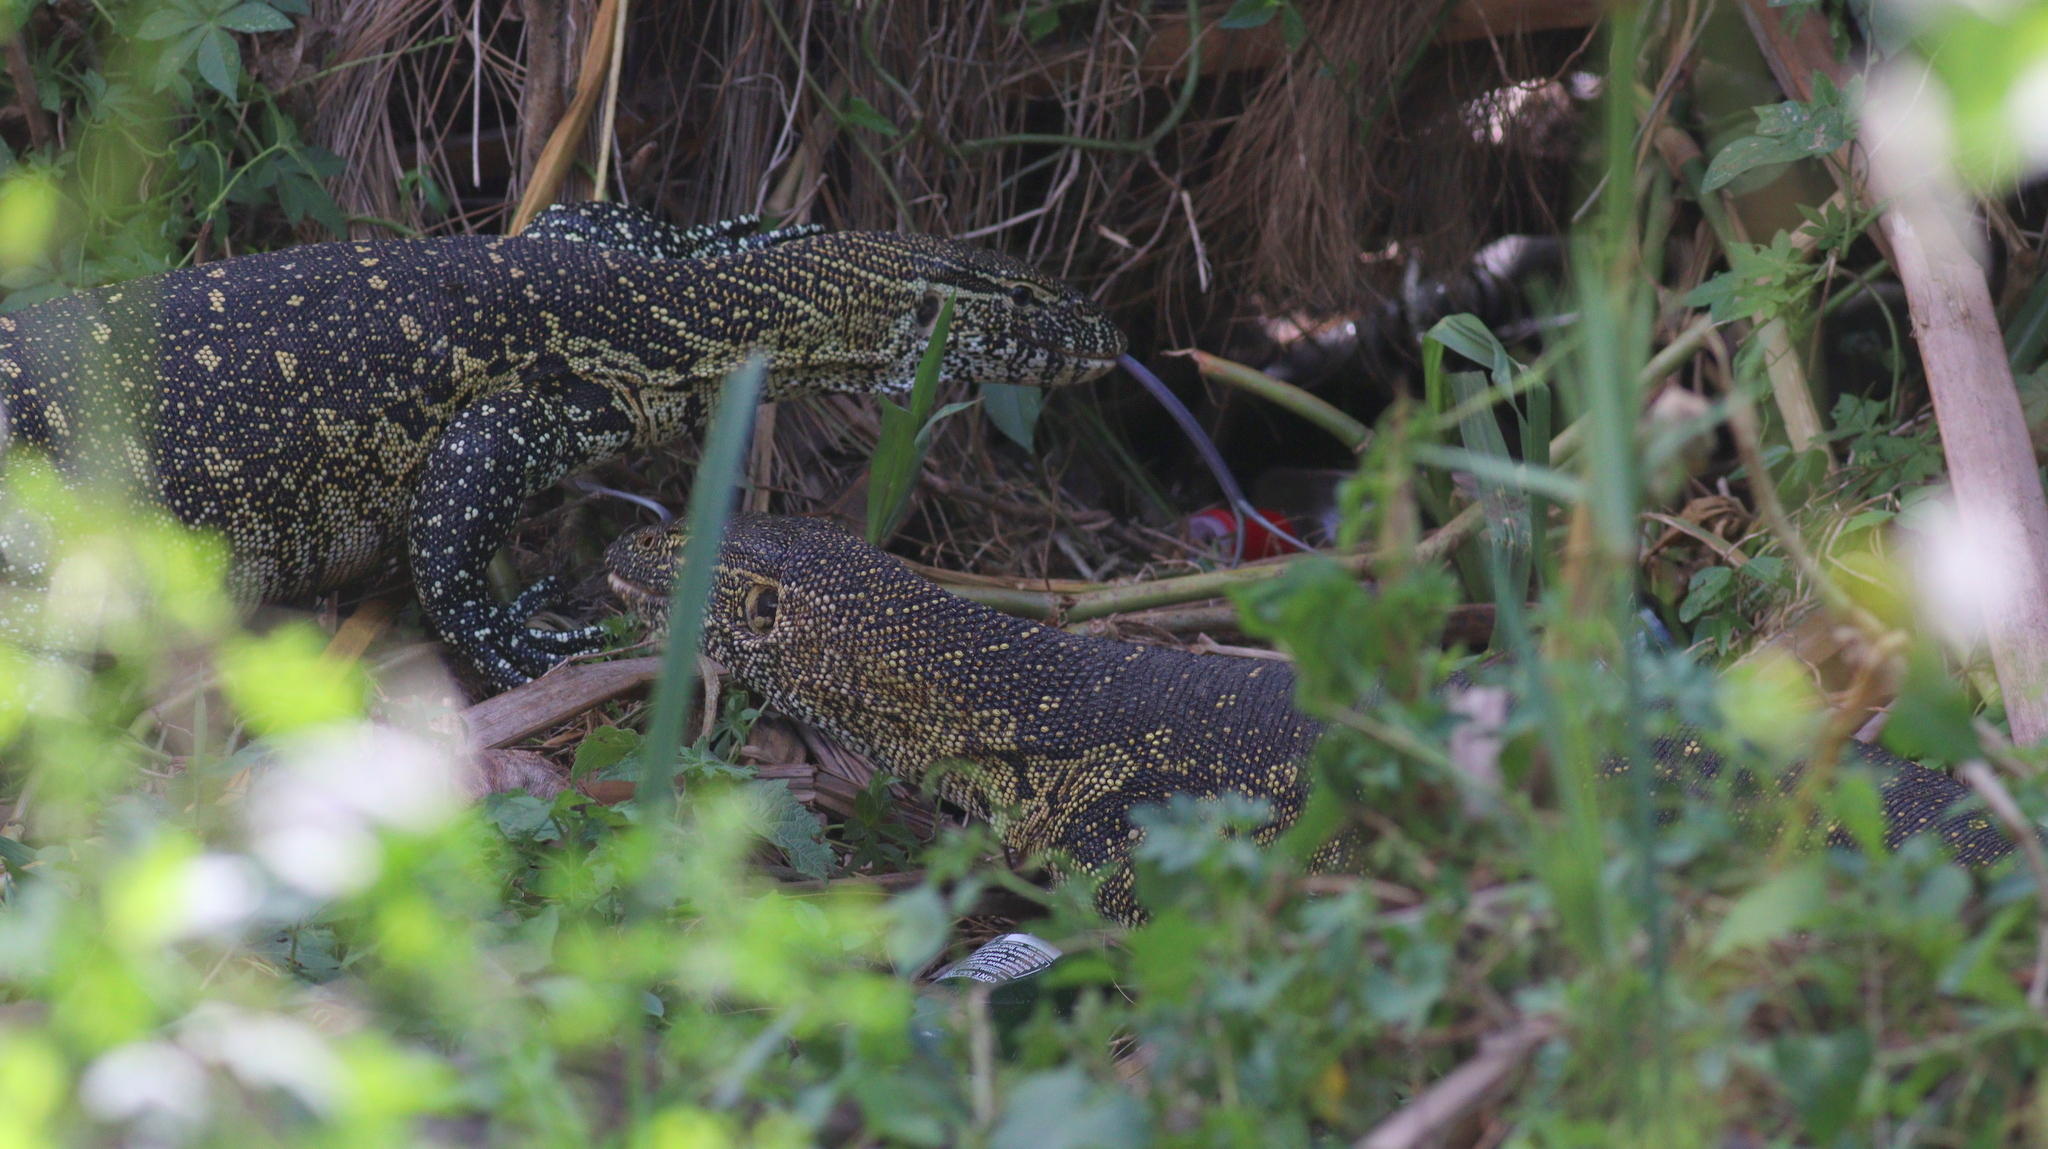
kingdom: Animalia
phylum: Chordata
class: Squamata
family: Varanidae
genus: Varanus
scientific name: Varanus niloticus
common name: Nile monitor
